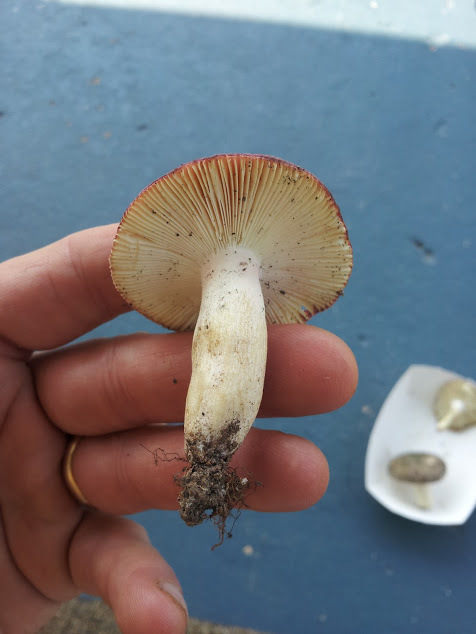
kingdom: Fungi
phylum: Basidiomycota
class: Agaricomycetes
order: Russulales
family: Russulaceae
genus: Russula
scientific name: Russula brunneoviolacea
